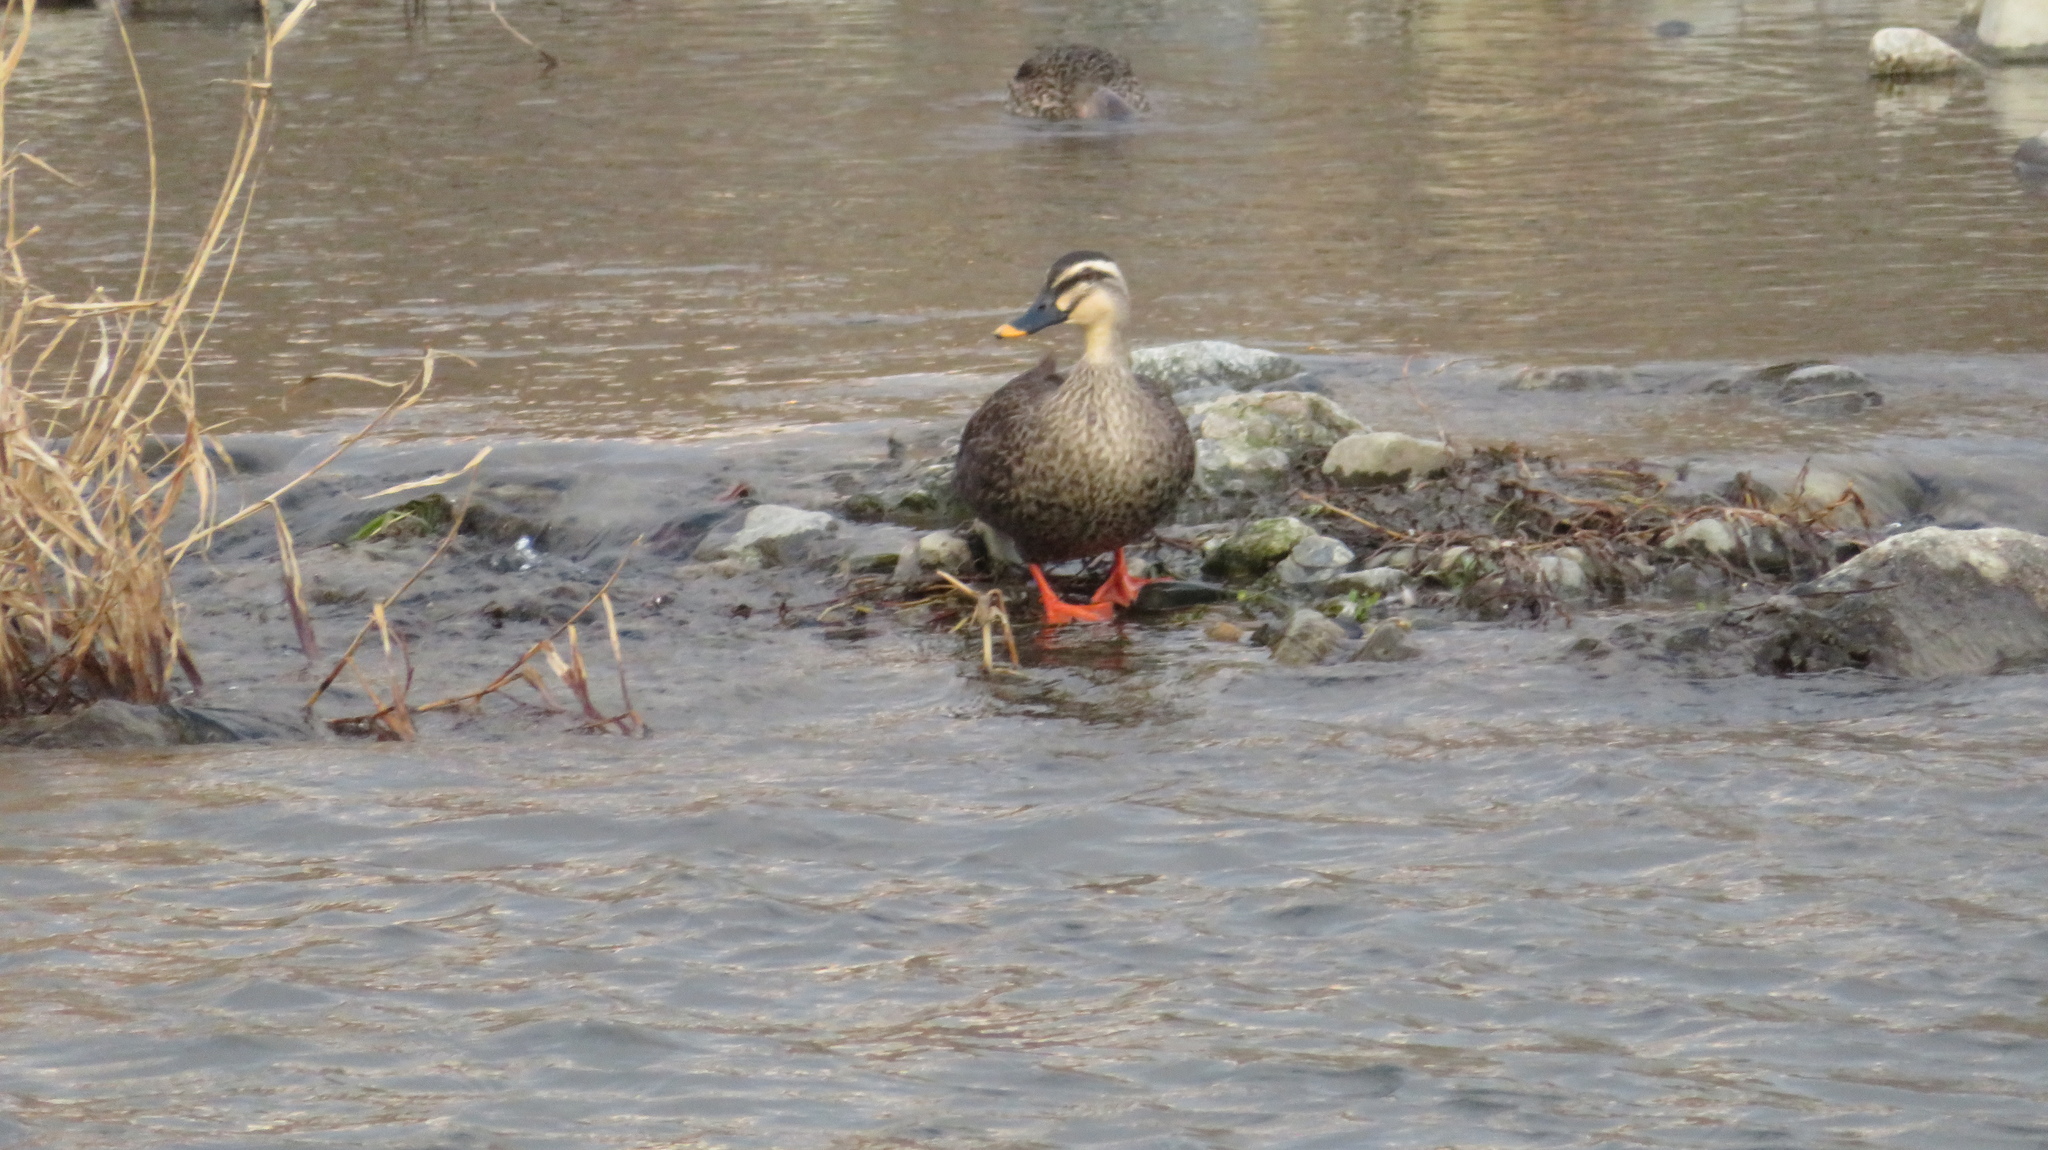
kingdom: Animalia
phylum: Chordata
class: Aves
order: Anseriformes
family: Anatidae
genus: Anas
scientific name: Anas zonorhyncha
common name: Eastern spot-billed duck
